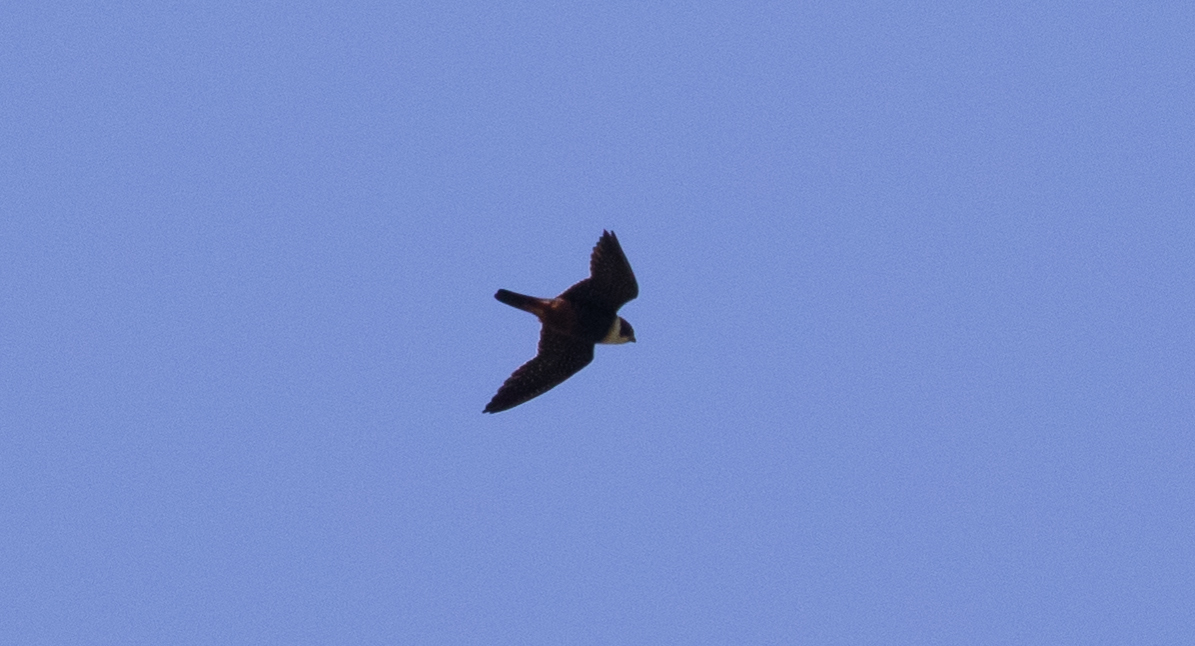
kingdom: Animalia
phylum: Chordata
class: Aves
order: Falconiformes
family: Falconidae
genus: Falco
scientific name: Falco rufigularis
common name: Bat falcon
